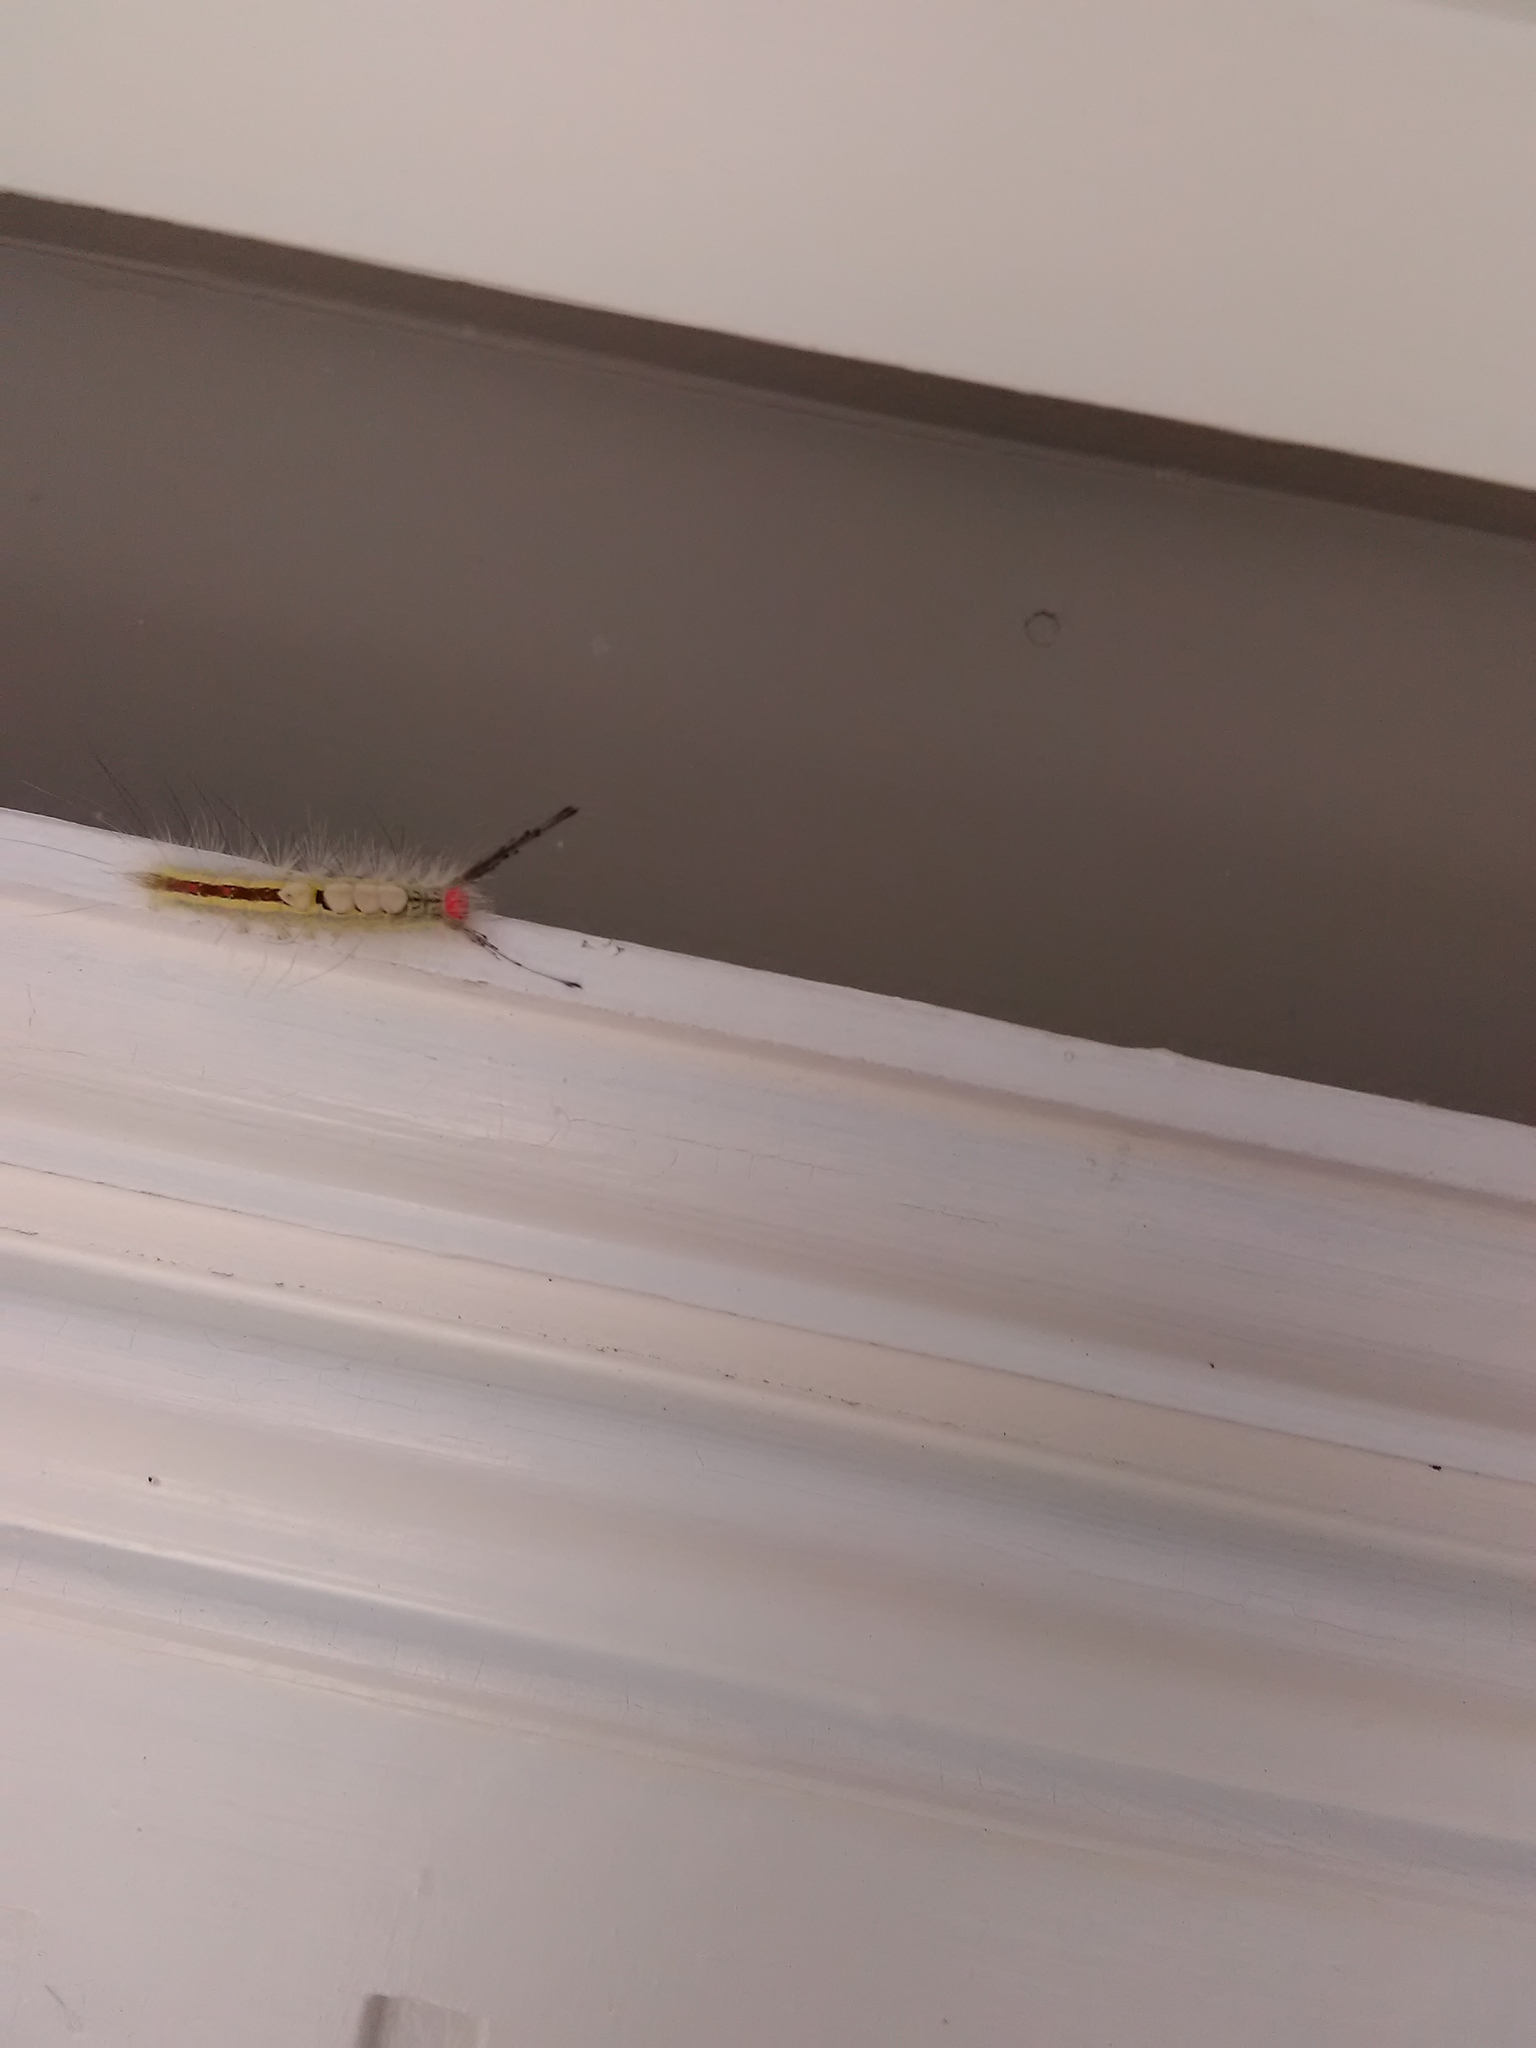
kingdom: Animalia
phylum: Arthropoda
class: Insecta
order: Lepidoptera
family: Erebidae
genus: Orgyia
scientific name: Orgyia leucostigma
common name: White-marked tussock moth
